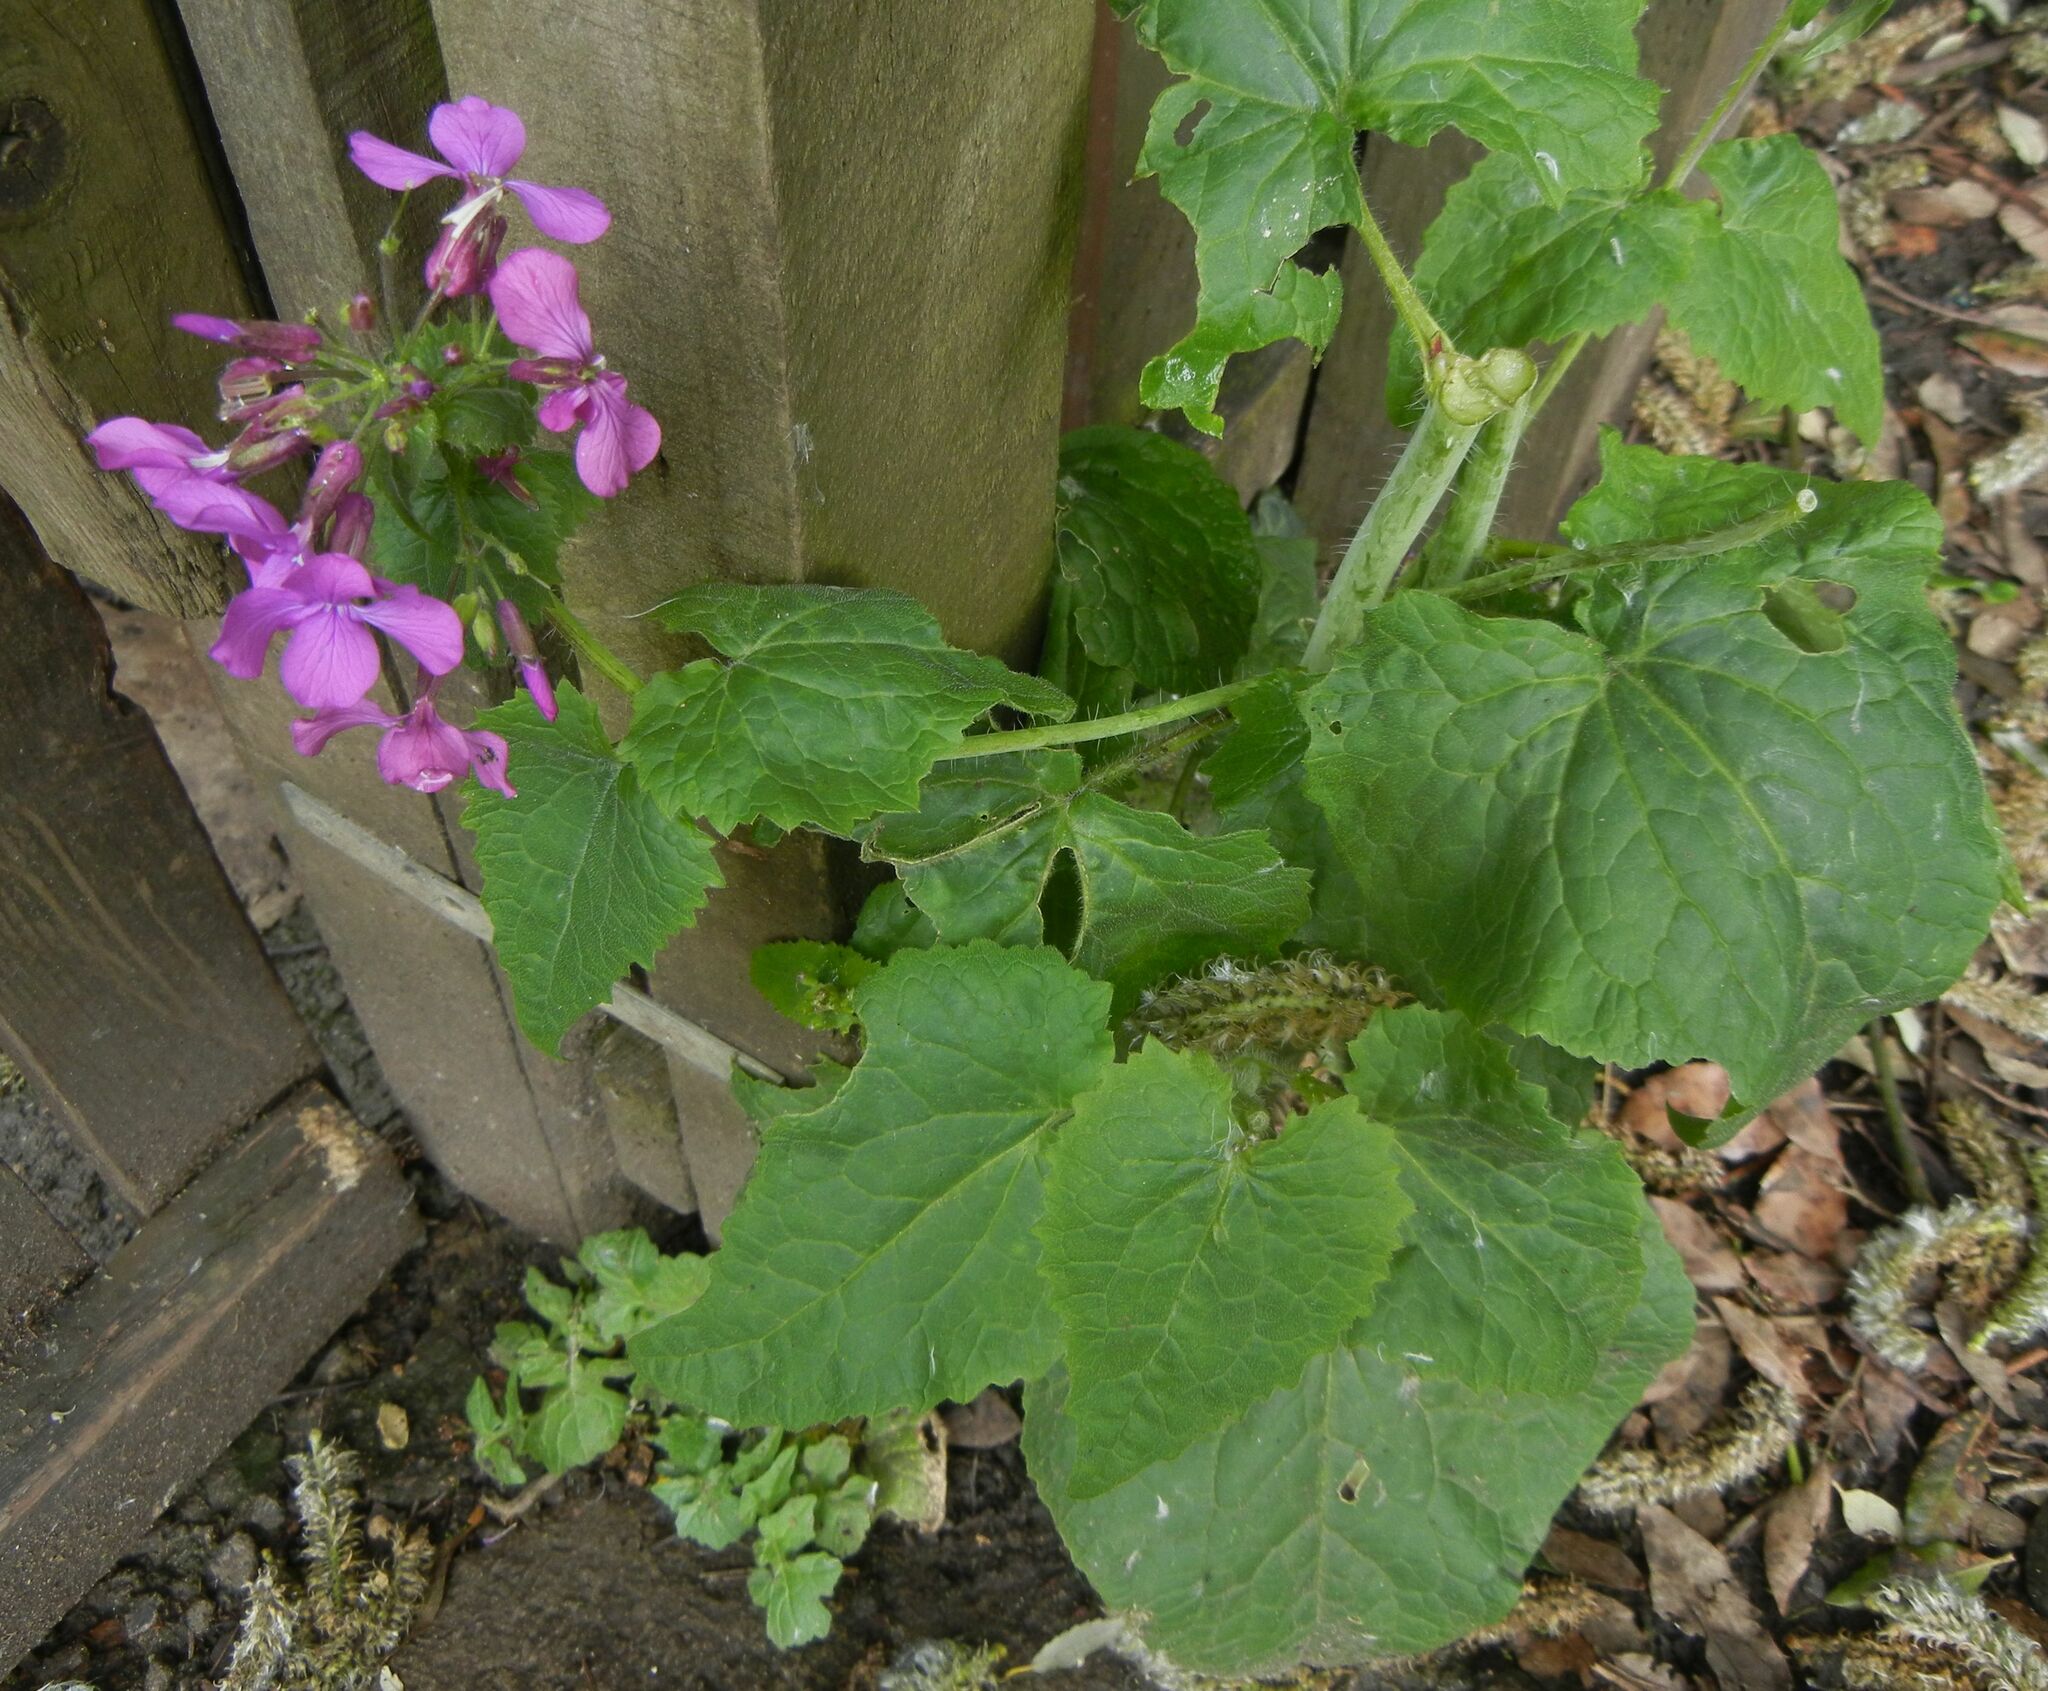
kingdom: Plantae
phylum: Tracheophyta
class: Magnoliopsida
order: Brassicales
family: Brassicaceae
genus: Lunaria
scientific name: Lunaria annua
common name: Honesty
